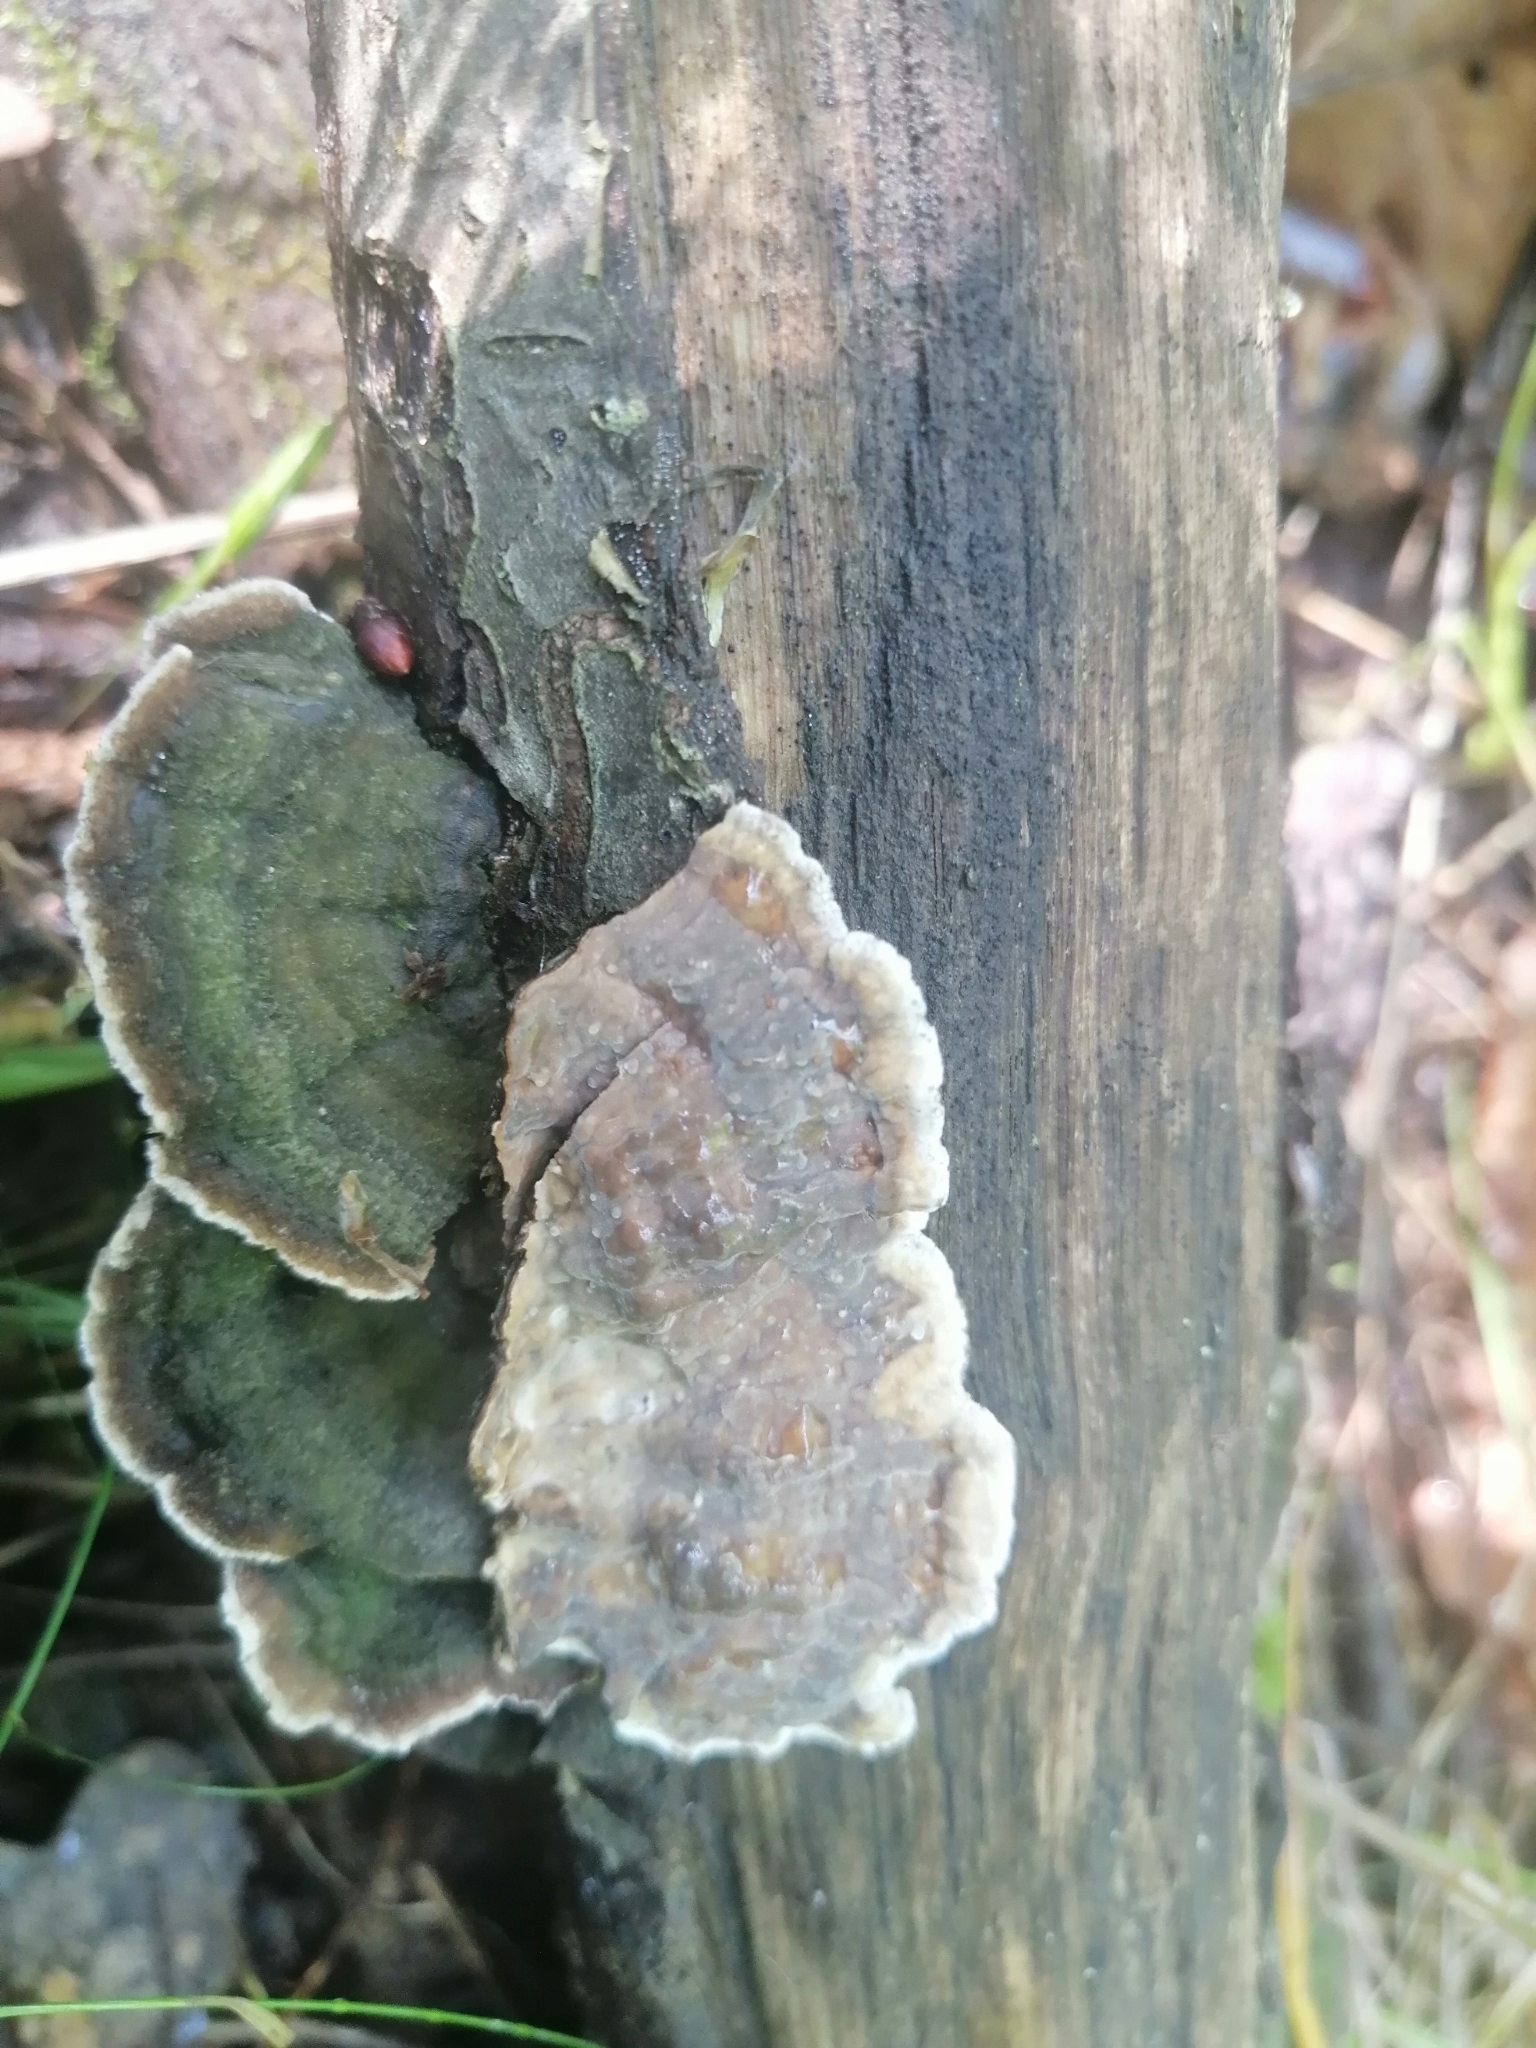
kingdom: Fungi
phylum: Basidiomycota
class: Agaricomycetes
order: Polyporales
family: Phanerochaetaceae
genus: Porostereum
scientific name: Porostereum spadiceum
